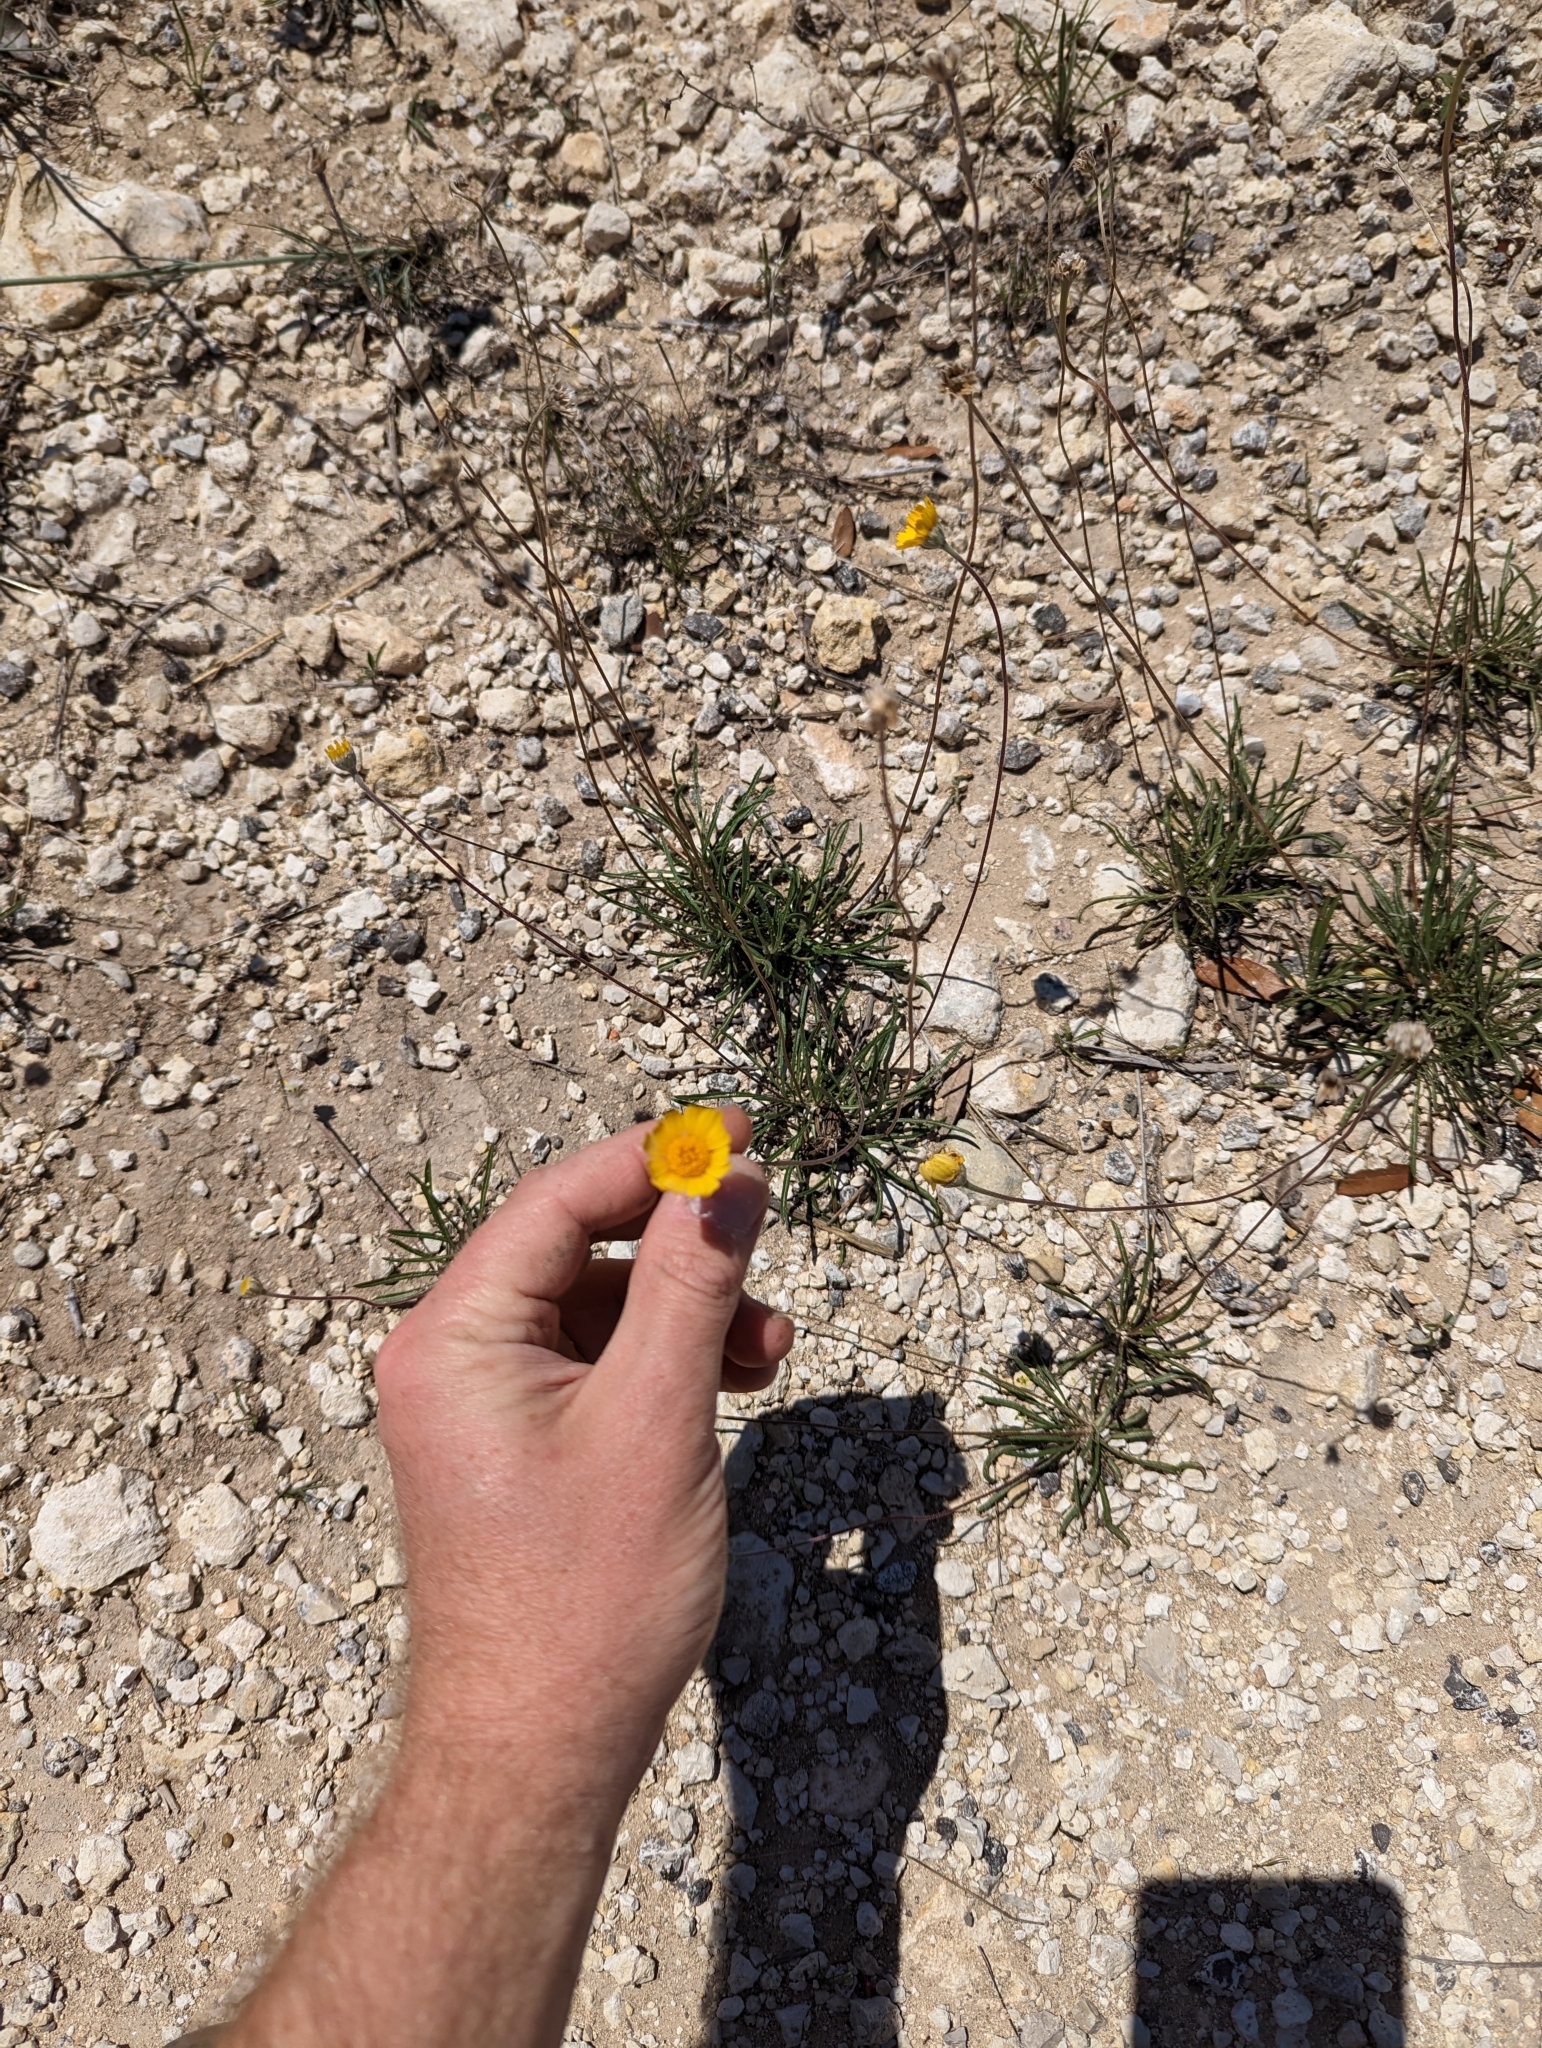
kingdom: Plantae
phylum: Tracheophyta
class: Magnoliopsida
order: Asterales
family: Asteraceae
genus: Tetraneuris
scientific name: Tetraneuris scaposa
